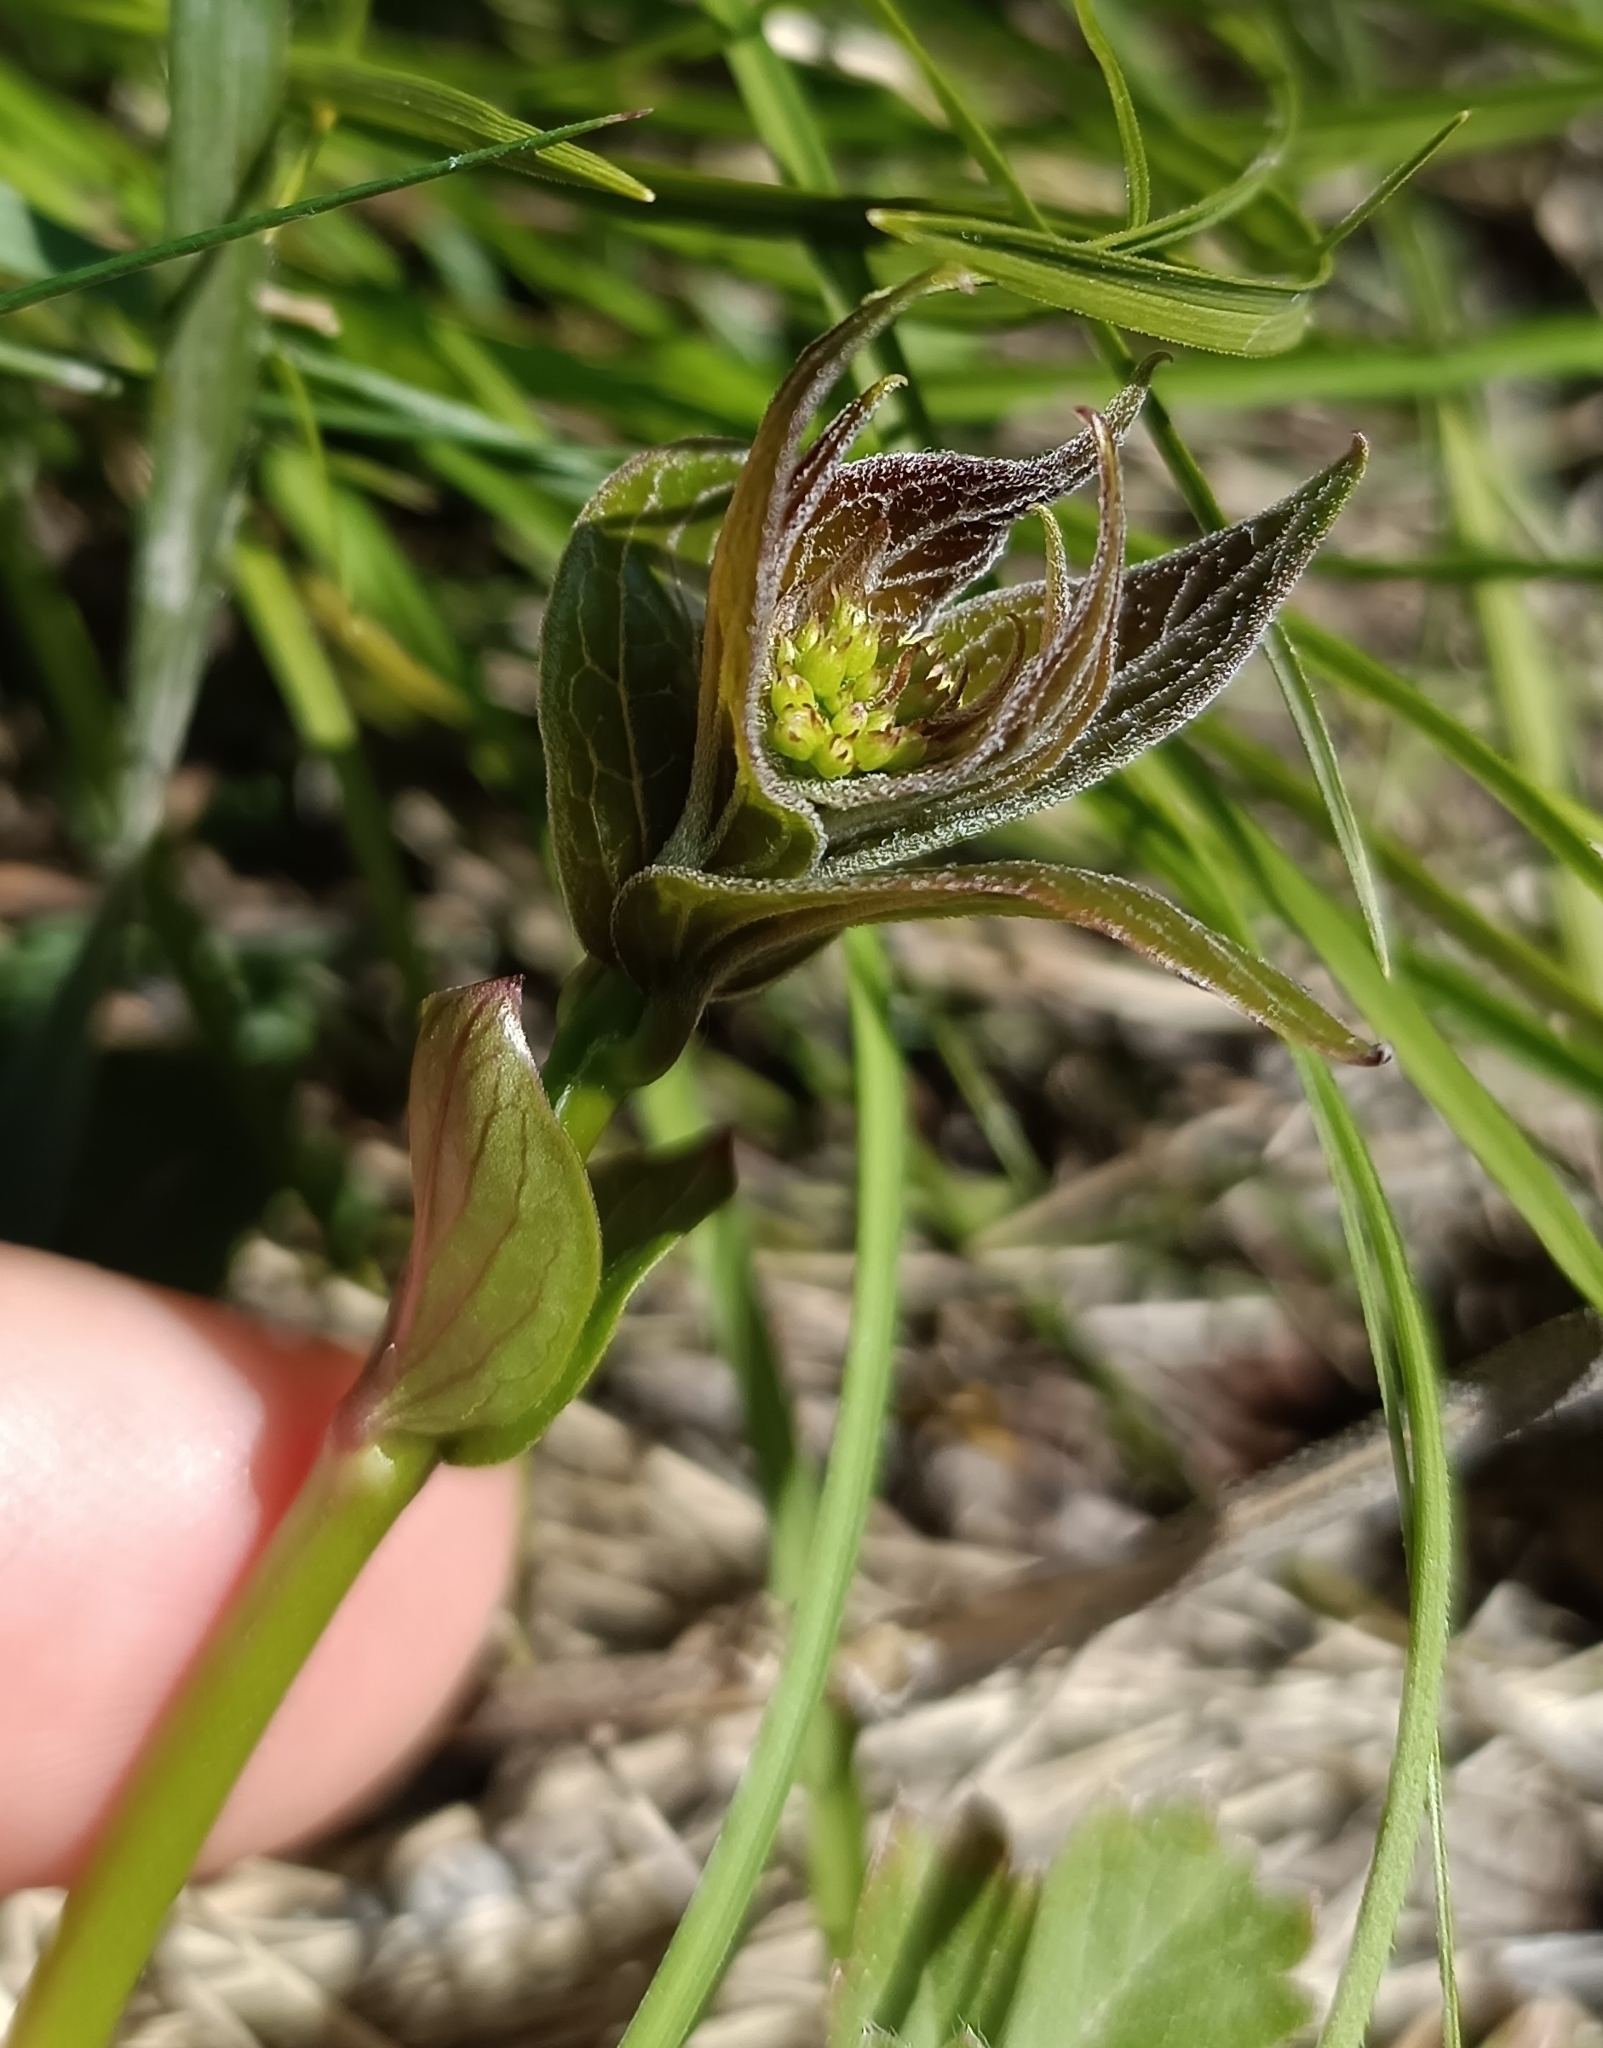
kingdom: Plantae
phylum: Tracheophyta
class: Magnoliopsida
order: Gentianales
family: Apocynaceae
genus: Vincetoxicum
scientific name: Vincetoxicum hirundinaria
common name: White swallowwort
